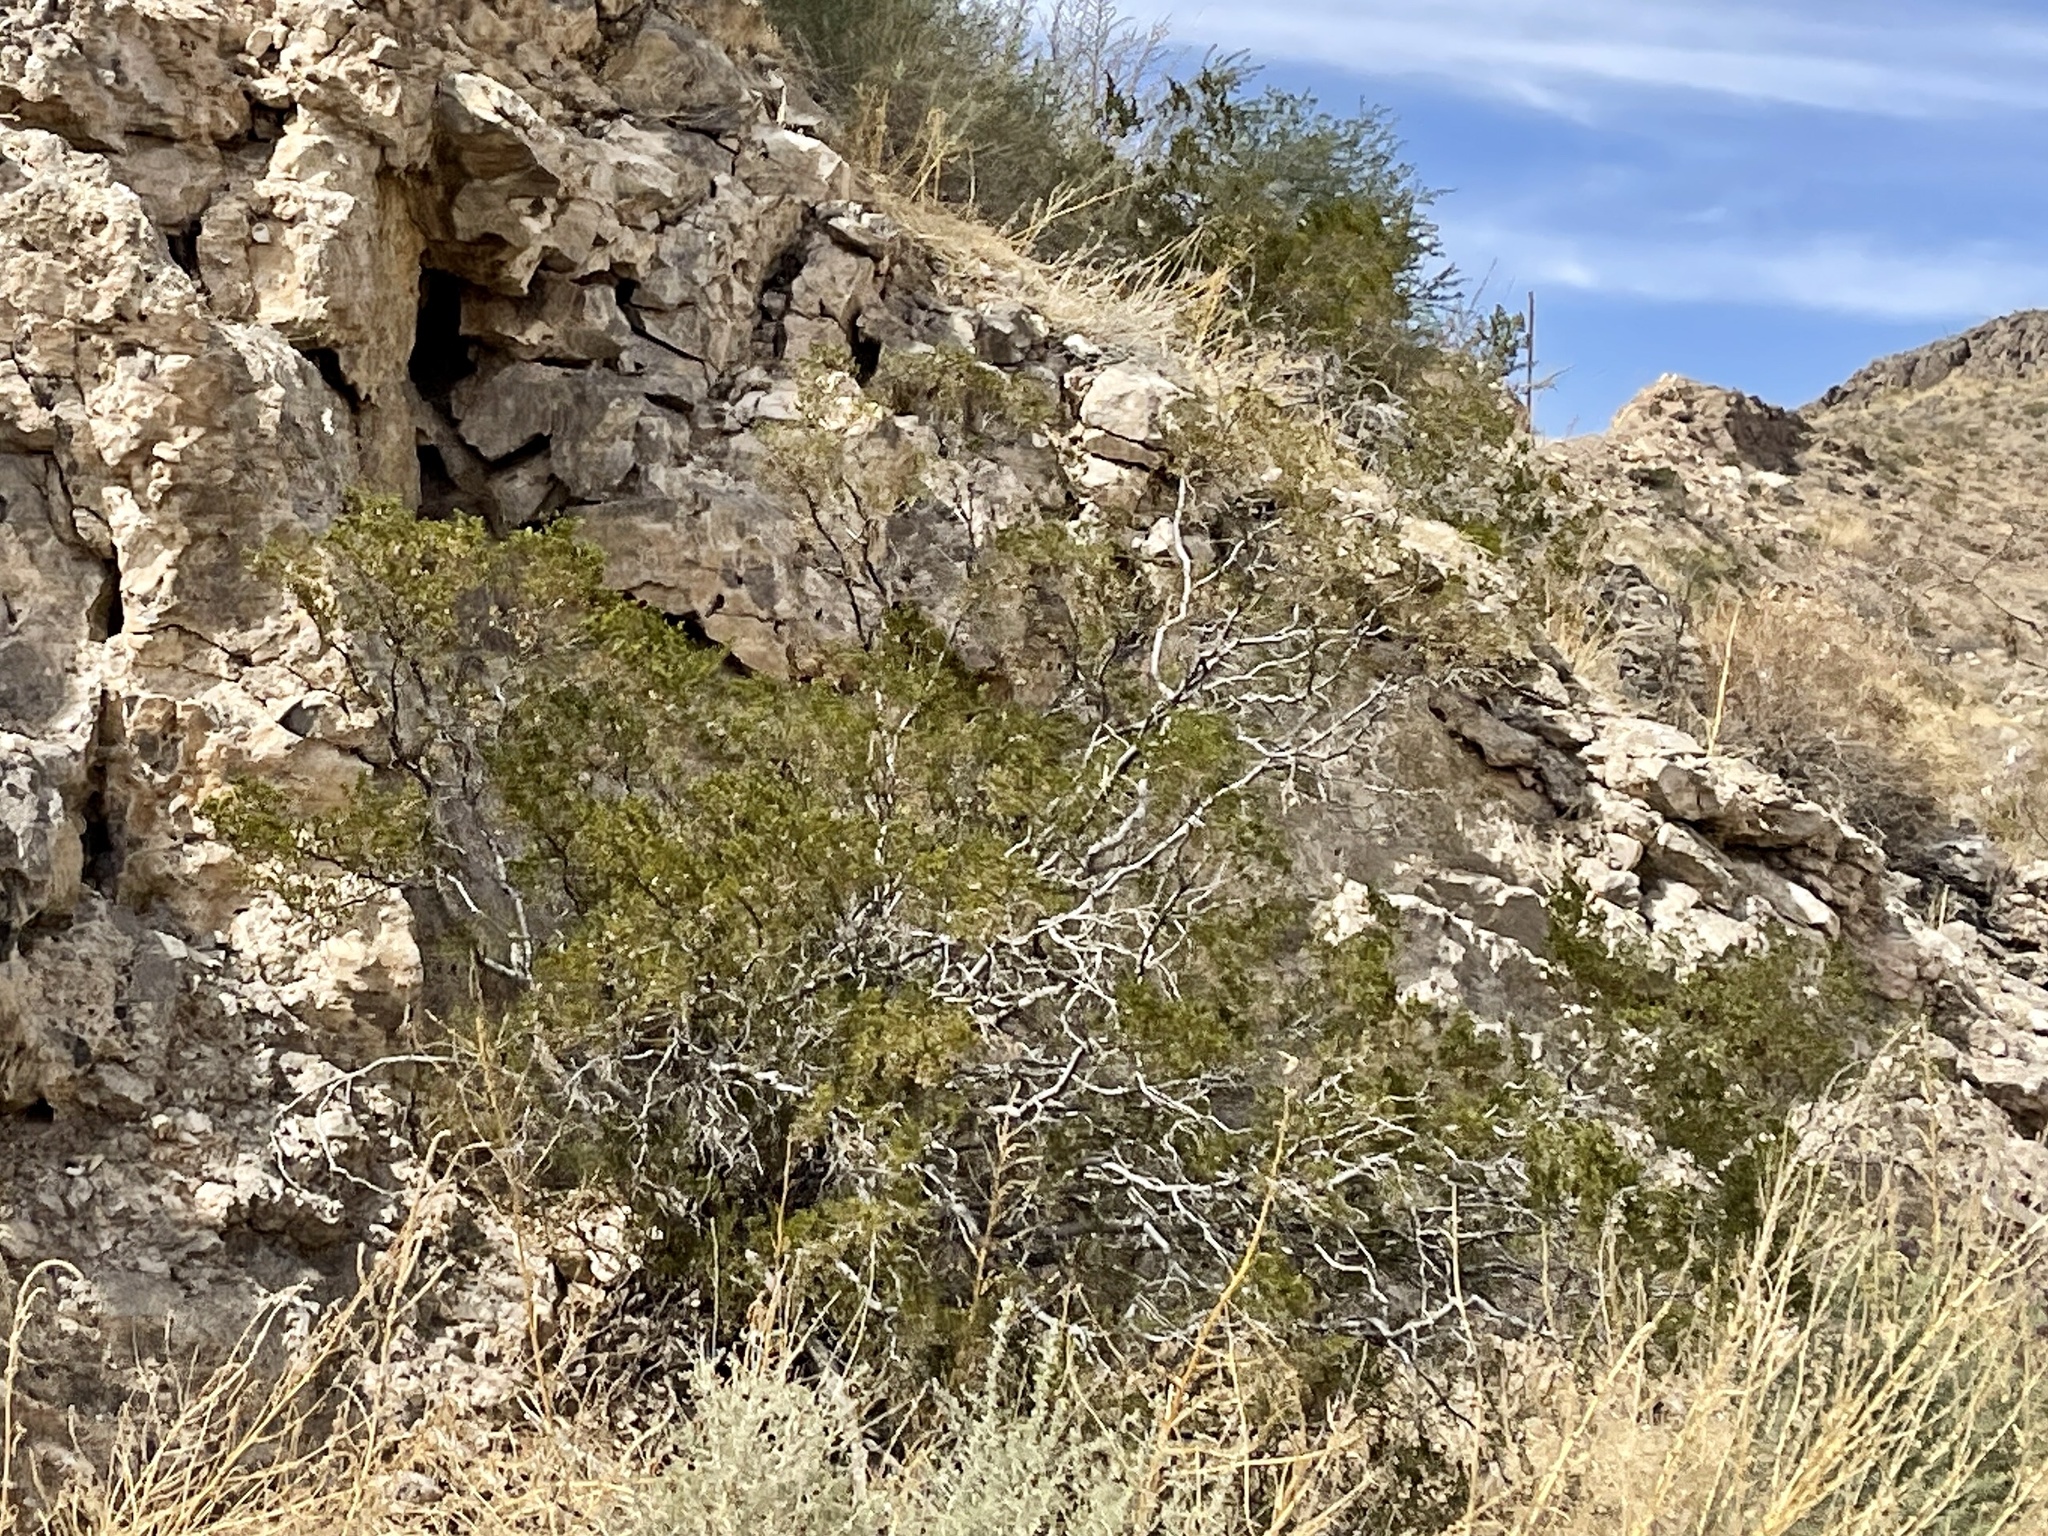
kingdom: Plantae
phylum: Tracheophyta
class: Magnoliopsida
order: Zygophyllales
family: Zygophyllaceae
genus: Larrea
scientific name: Larrea tridentata
